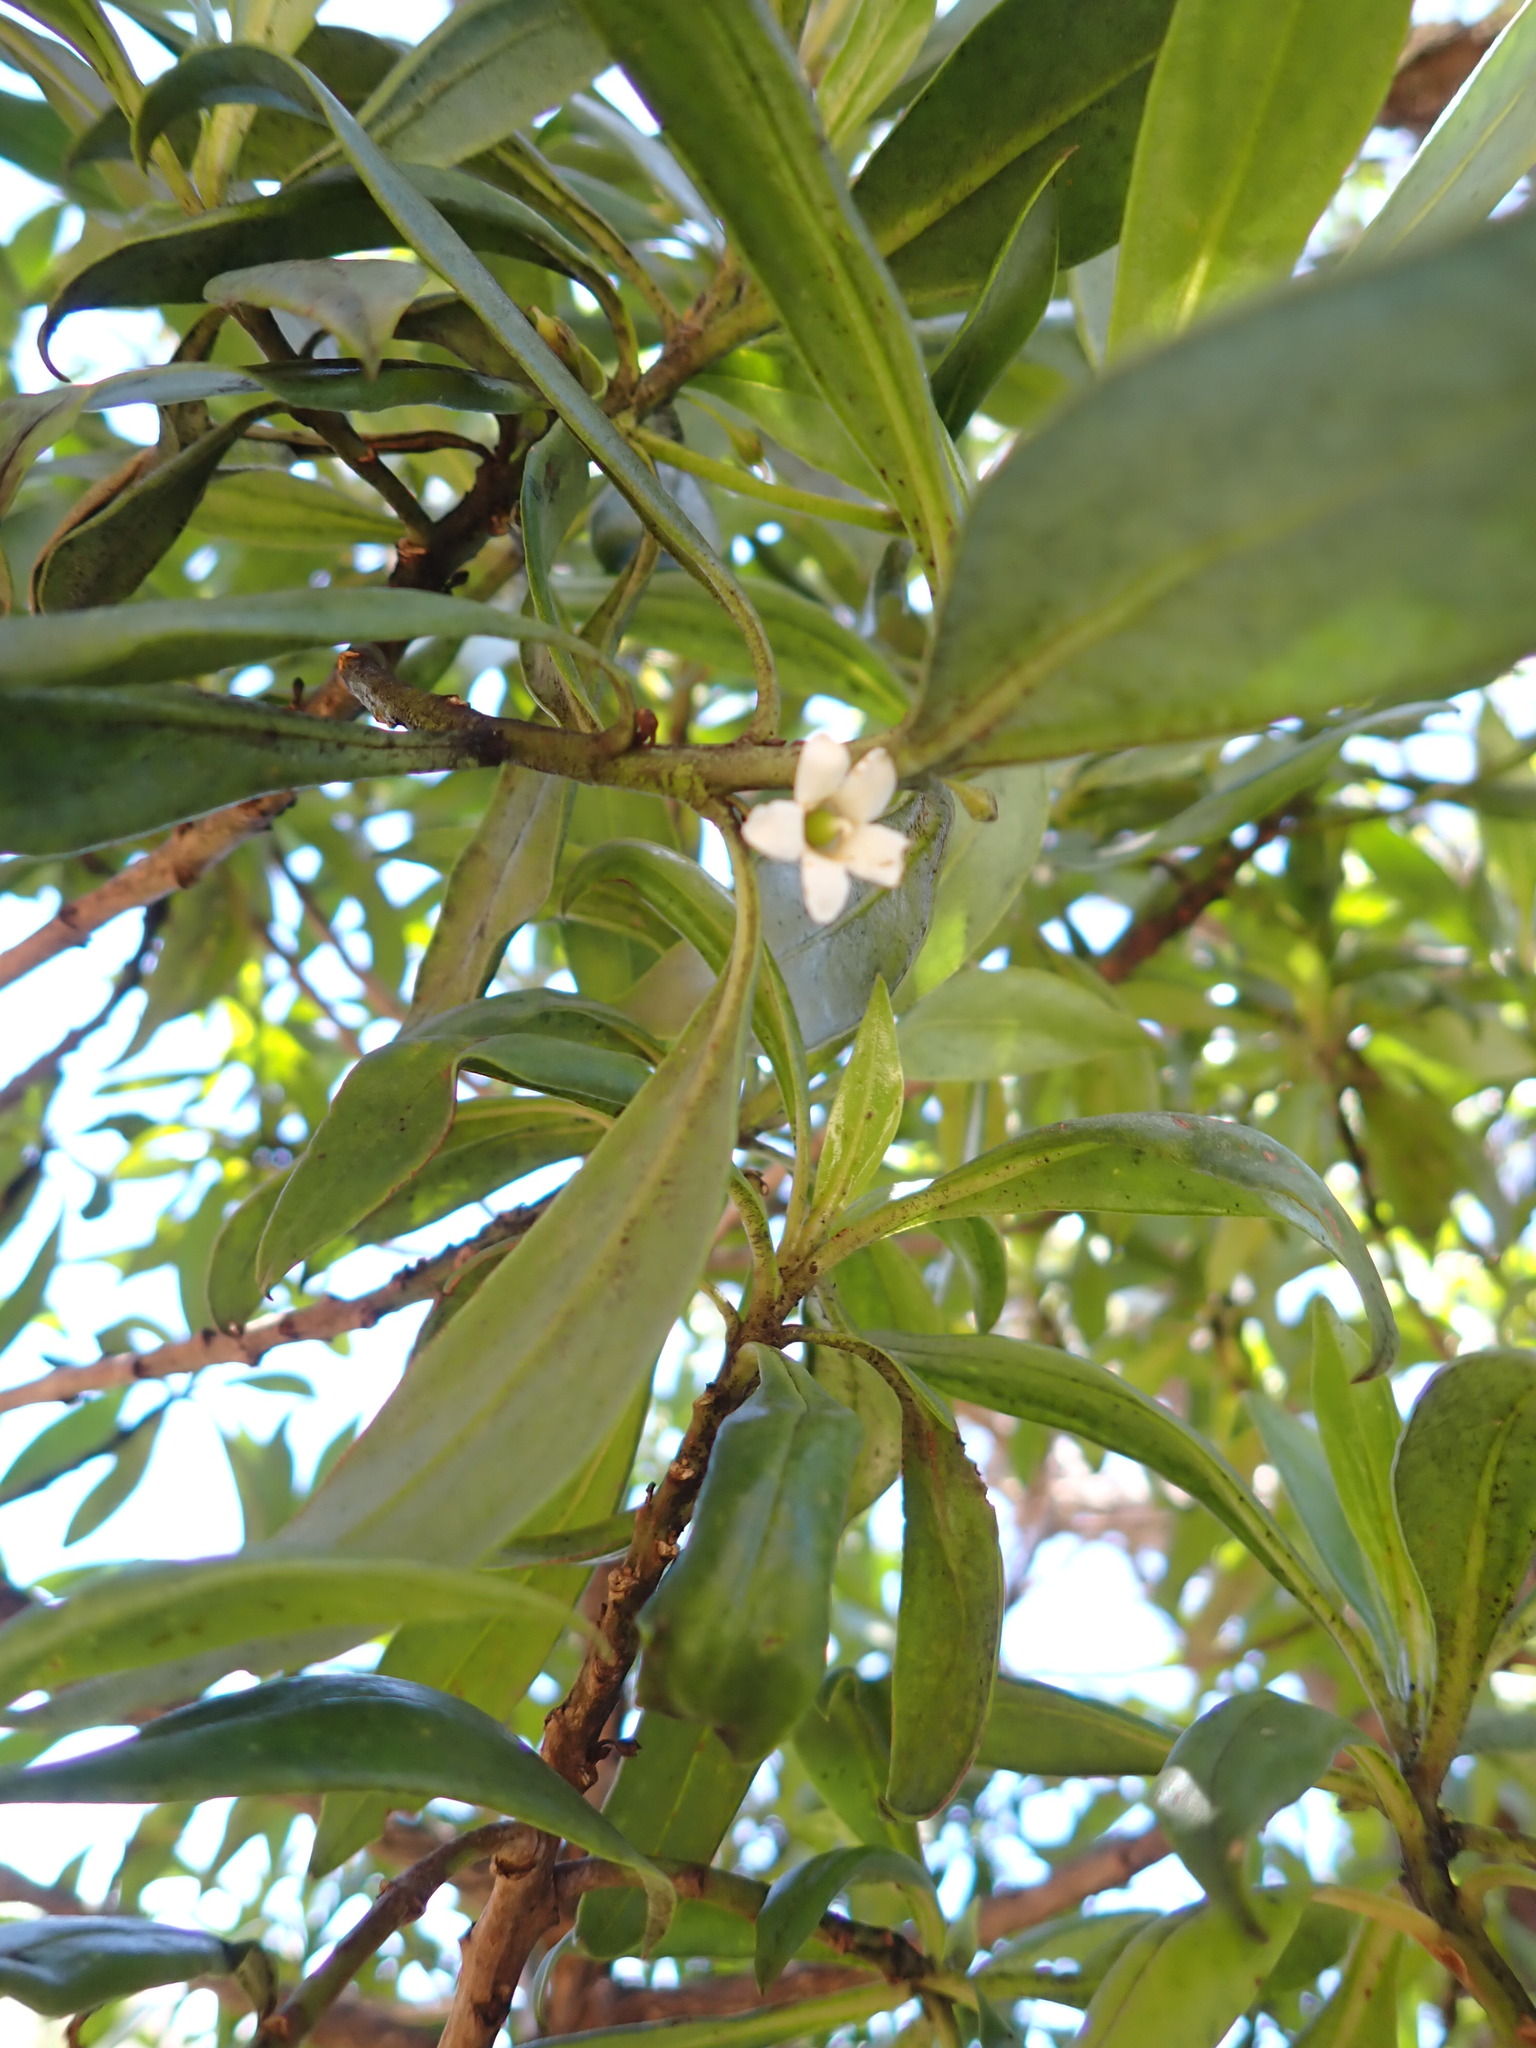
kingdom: Plantae
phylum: Tracheophyta
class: Magnoliopsida
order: Lamiales
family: Scrophulariaceae
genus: Myoporum
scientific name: Myoporum sandwicense
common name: Bastard-sandalwood
